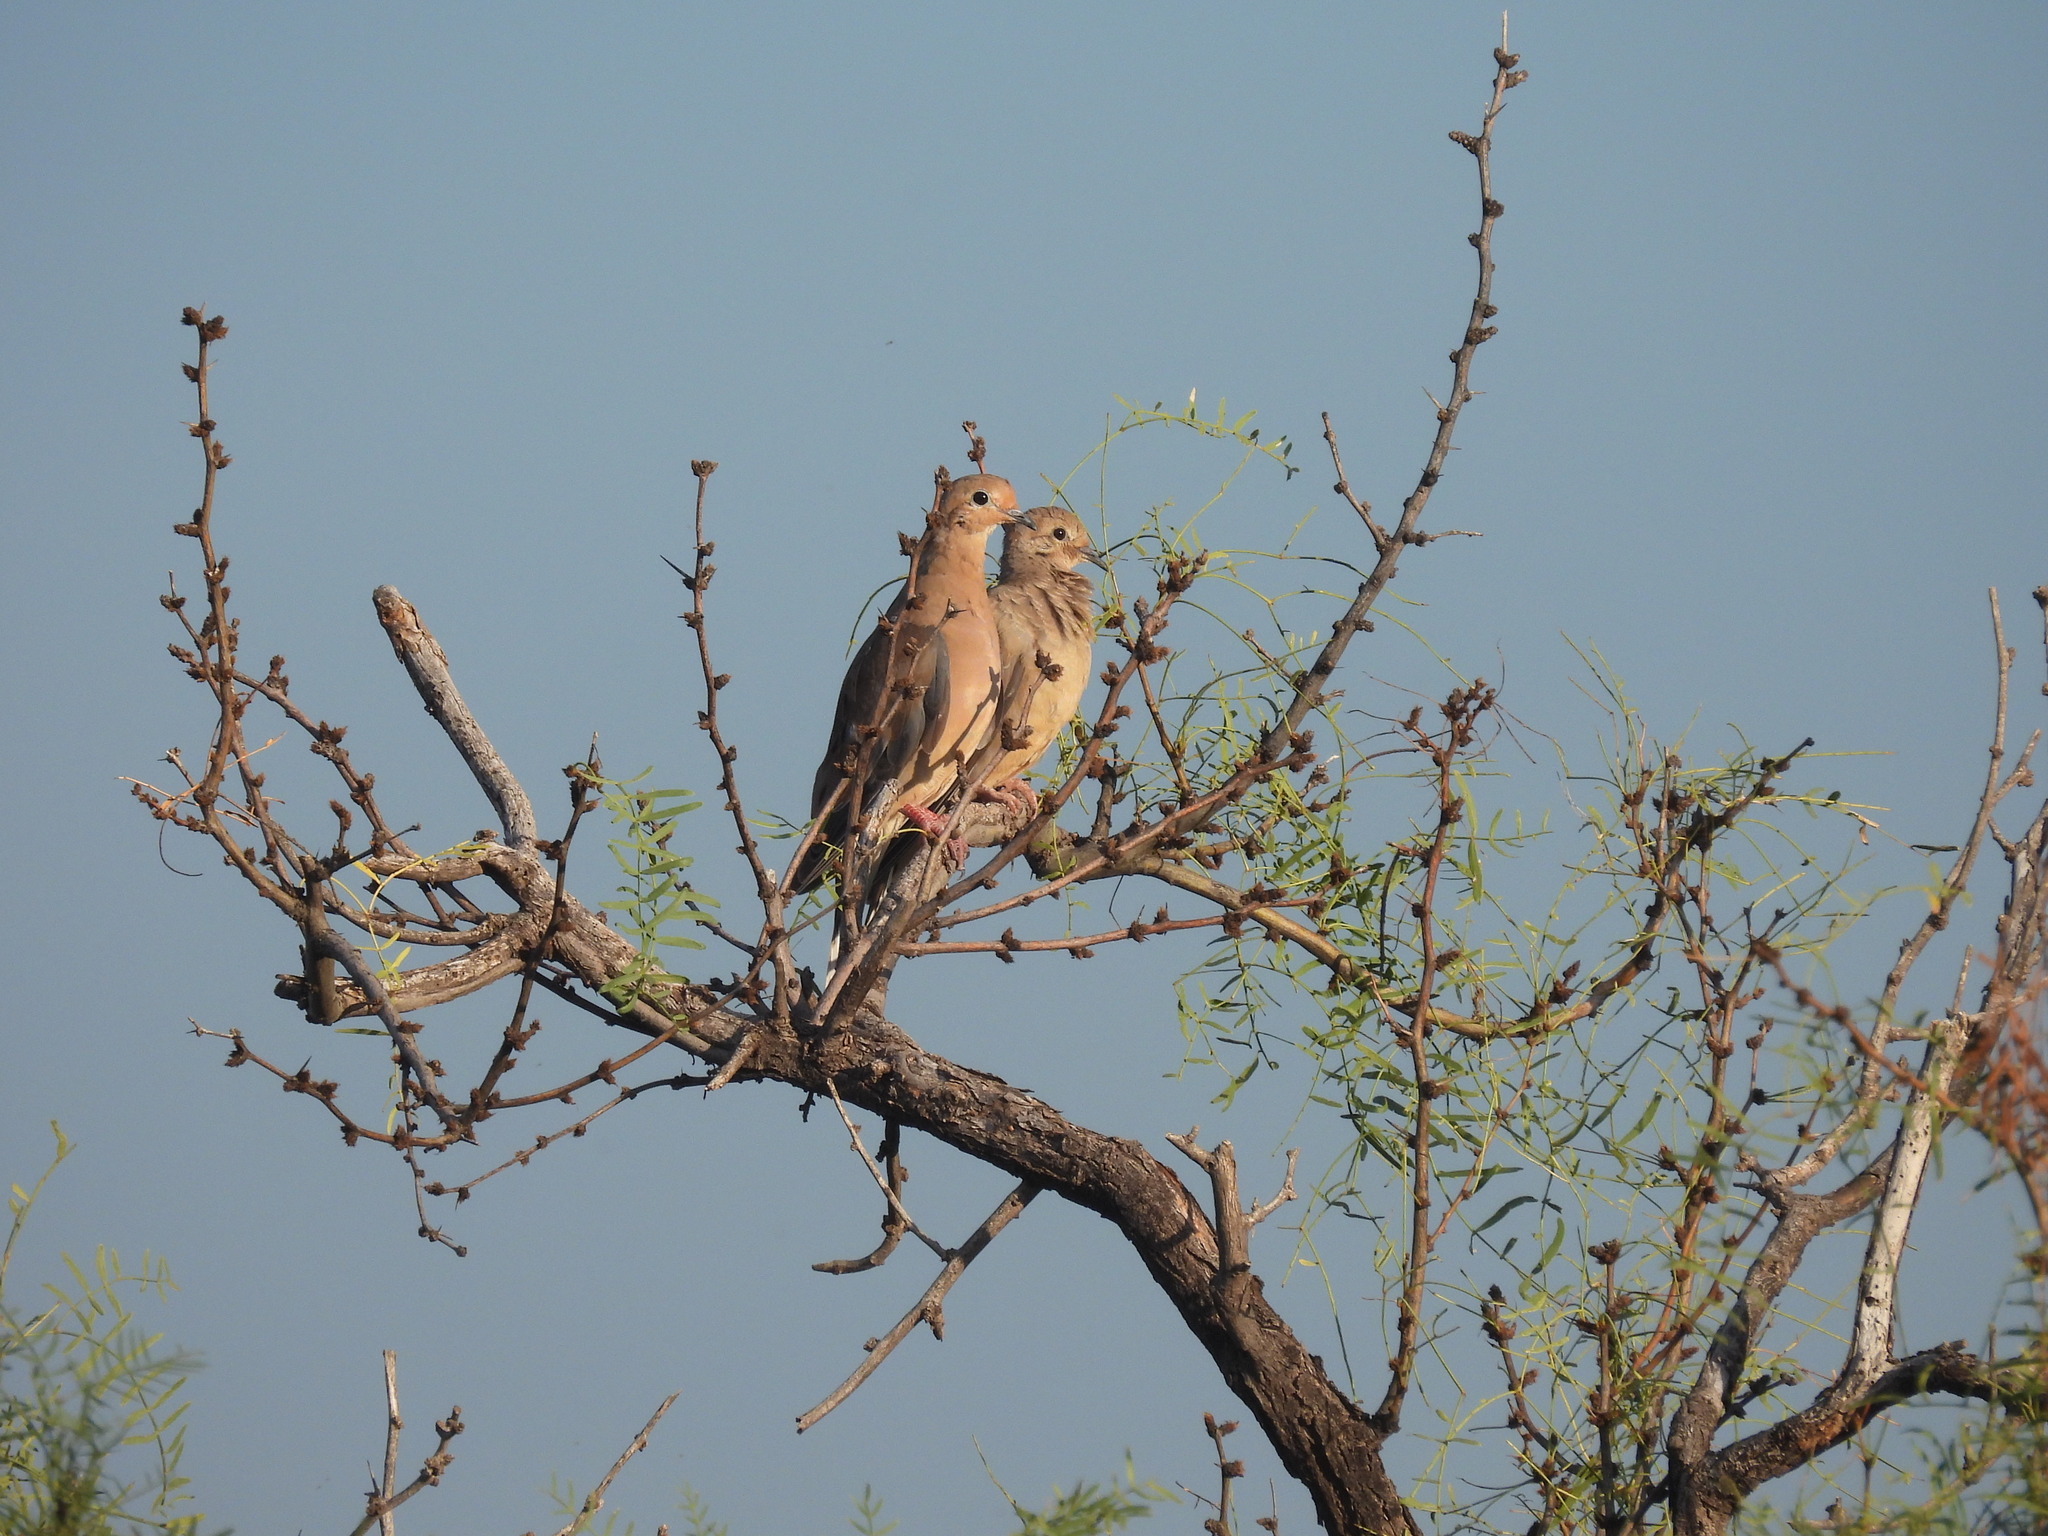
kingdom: Animalia
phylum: Chordata
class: Aves
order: Columbiformes
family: Columbidae
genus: Zenaida
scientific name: Zenaida macroura
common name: Mourning dove
